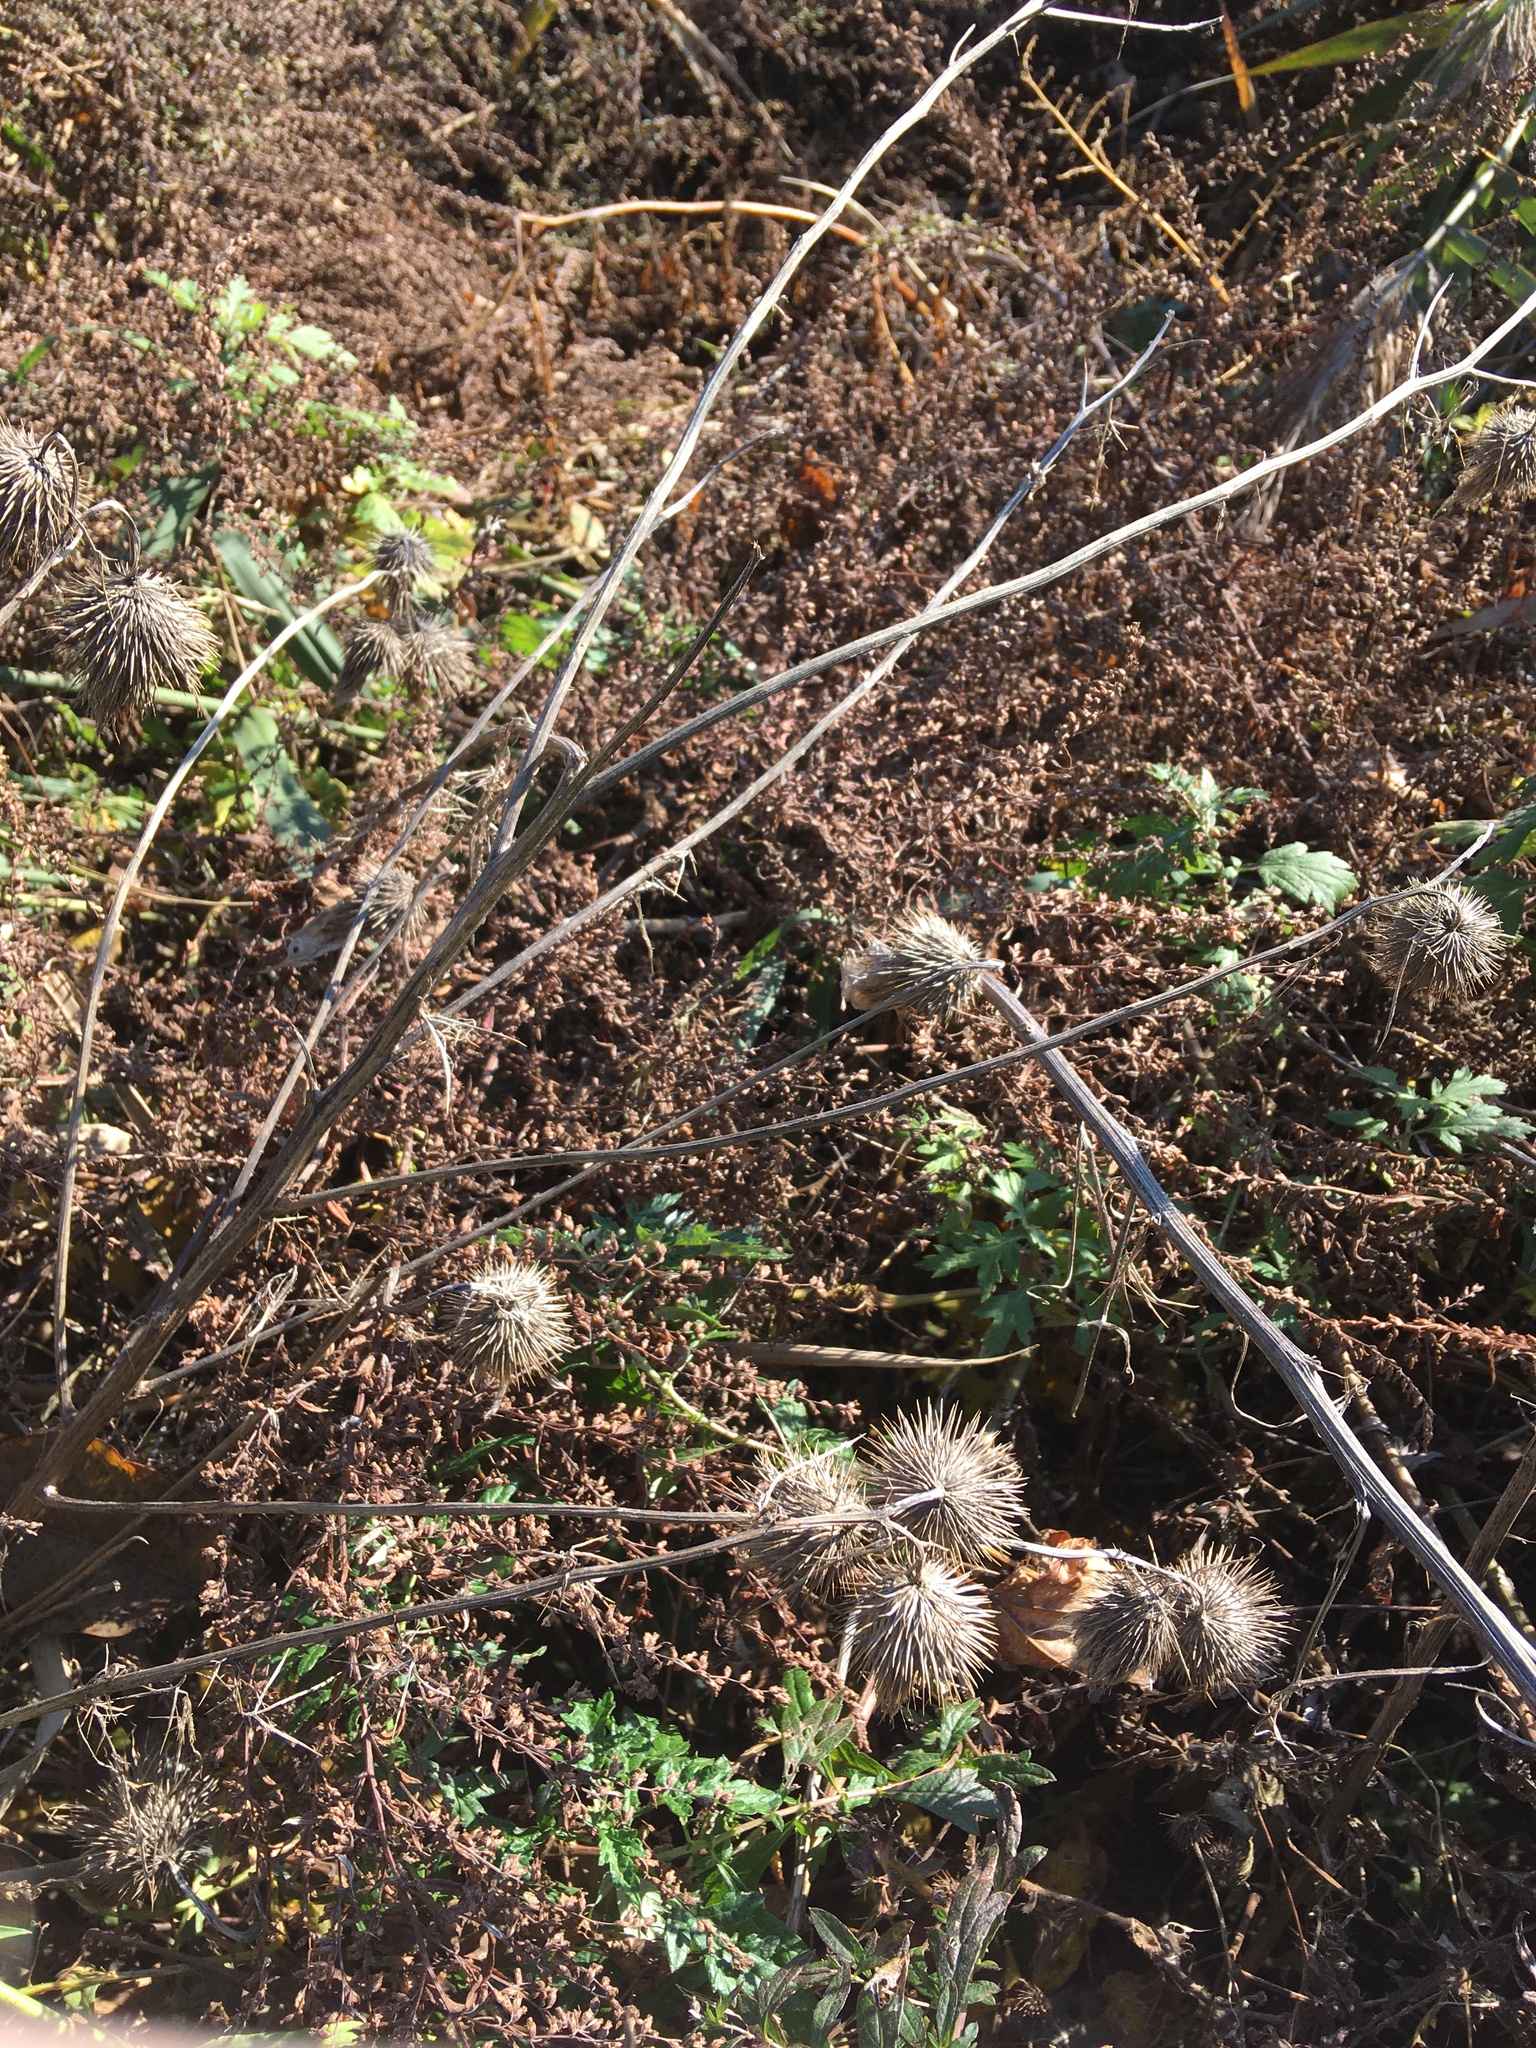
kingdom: Plantae
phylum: Tracheophyta
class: Magnoliopsida
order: Asterales
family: Asteraceae
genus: Cirsium
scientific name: Cirsium vulgare
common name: Bull thistle
